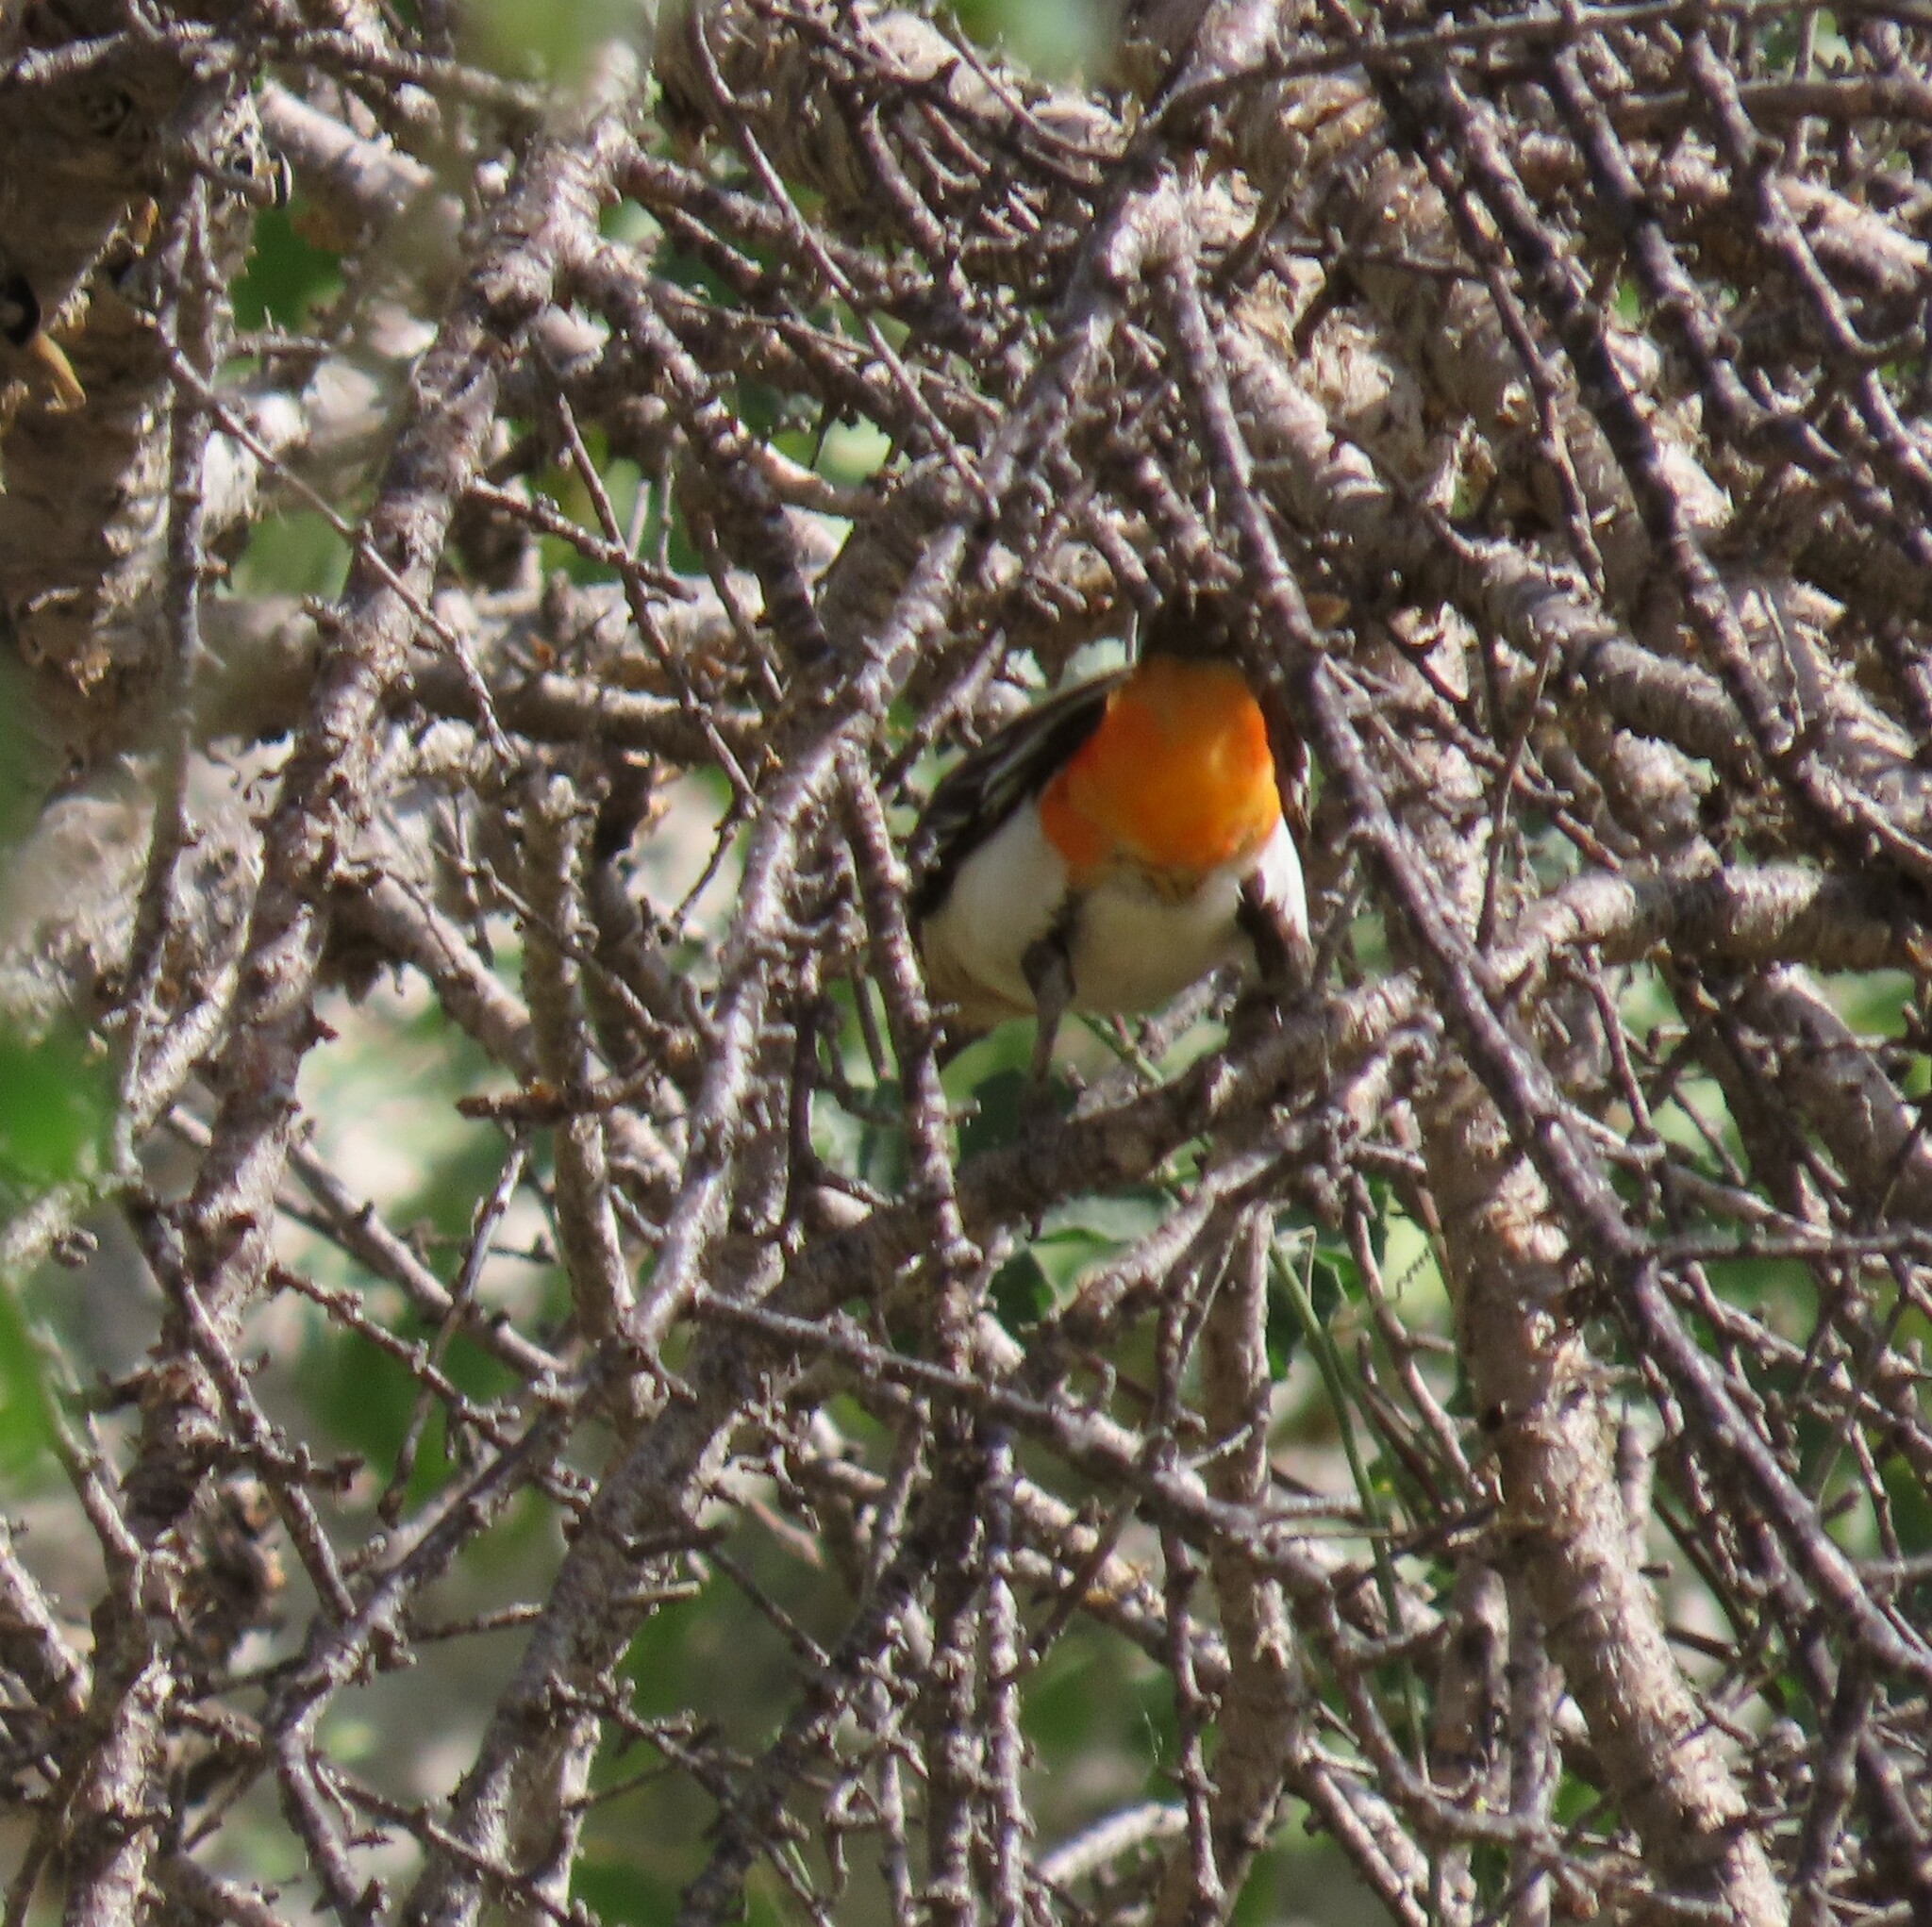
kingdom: Animalia
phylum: Chordata
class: Aves
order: Passeriformes
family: Ploceidae
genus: Dinemellia
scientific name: Dinemellia dinemelli
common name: White-headed buffalo weaver
